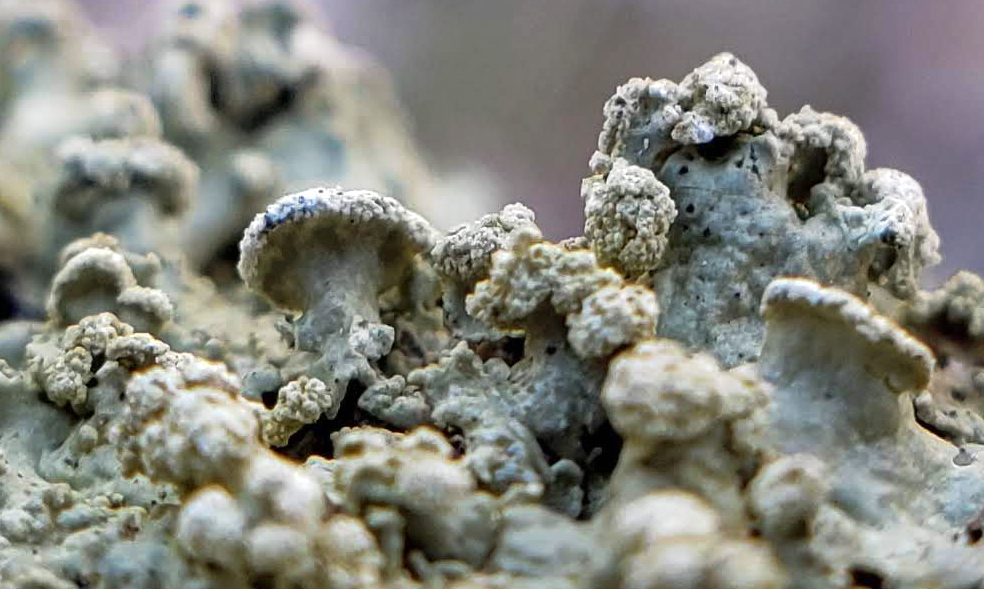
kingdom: Fungi
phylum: Ascomycota
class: Lecanoromycetes
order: Lecanorales
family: Parmeliaceae
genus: Flavopunctelia
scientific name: Flavopunctelia soredica
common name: Powder-edged speckled greenshield
